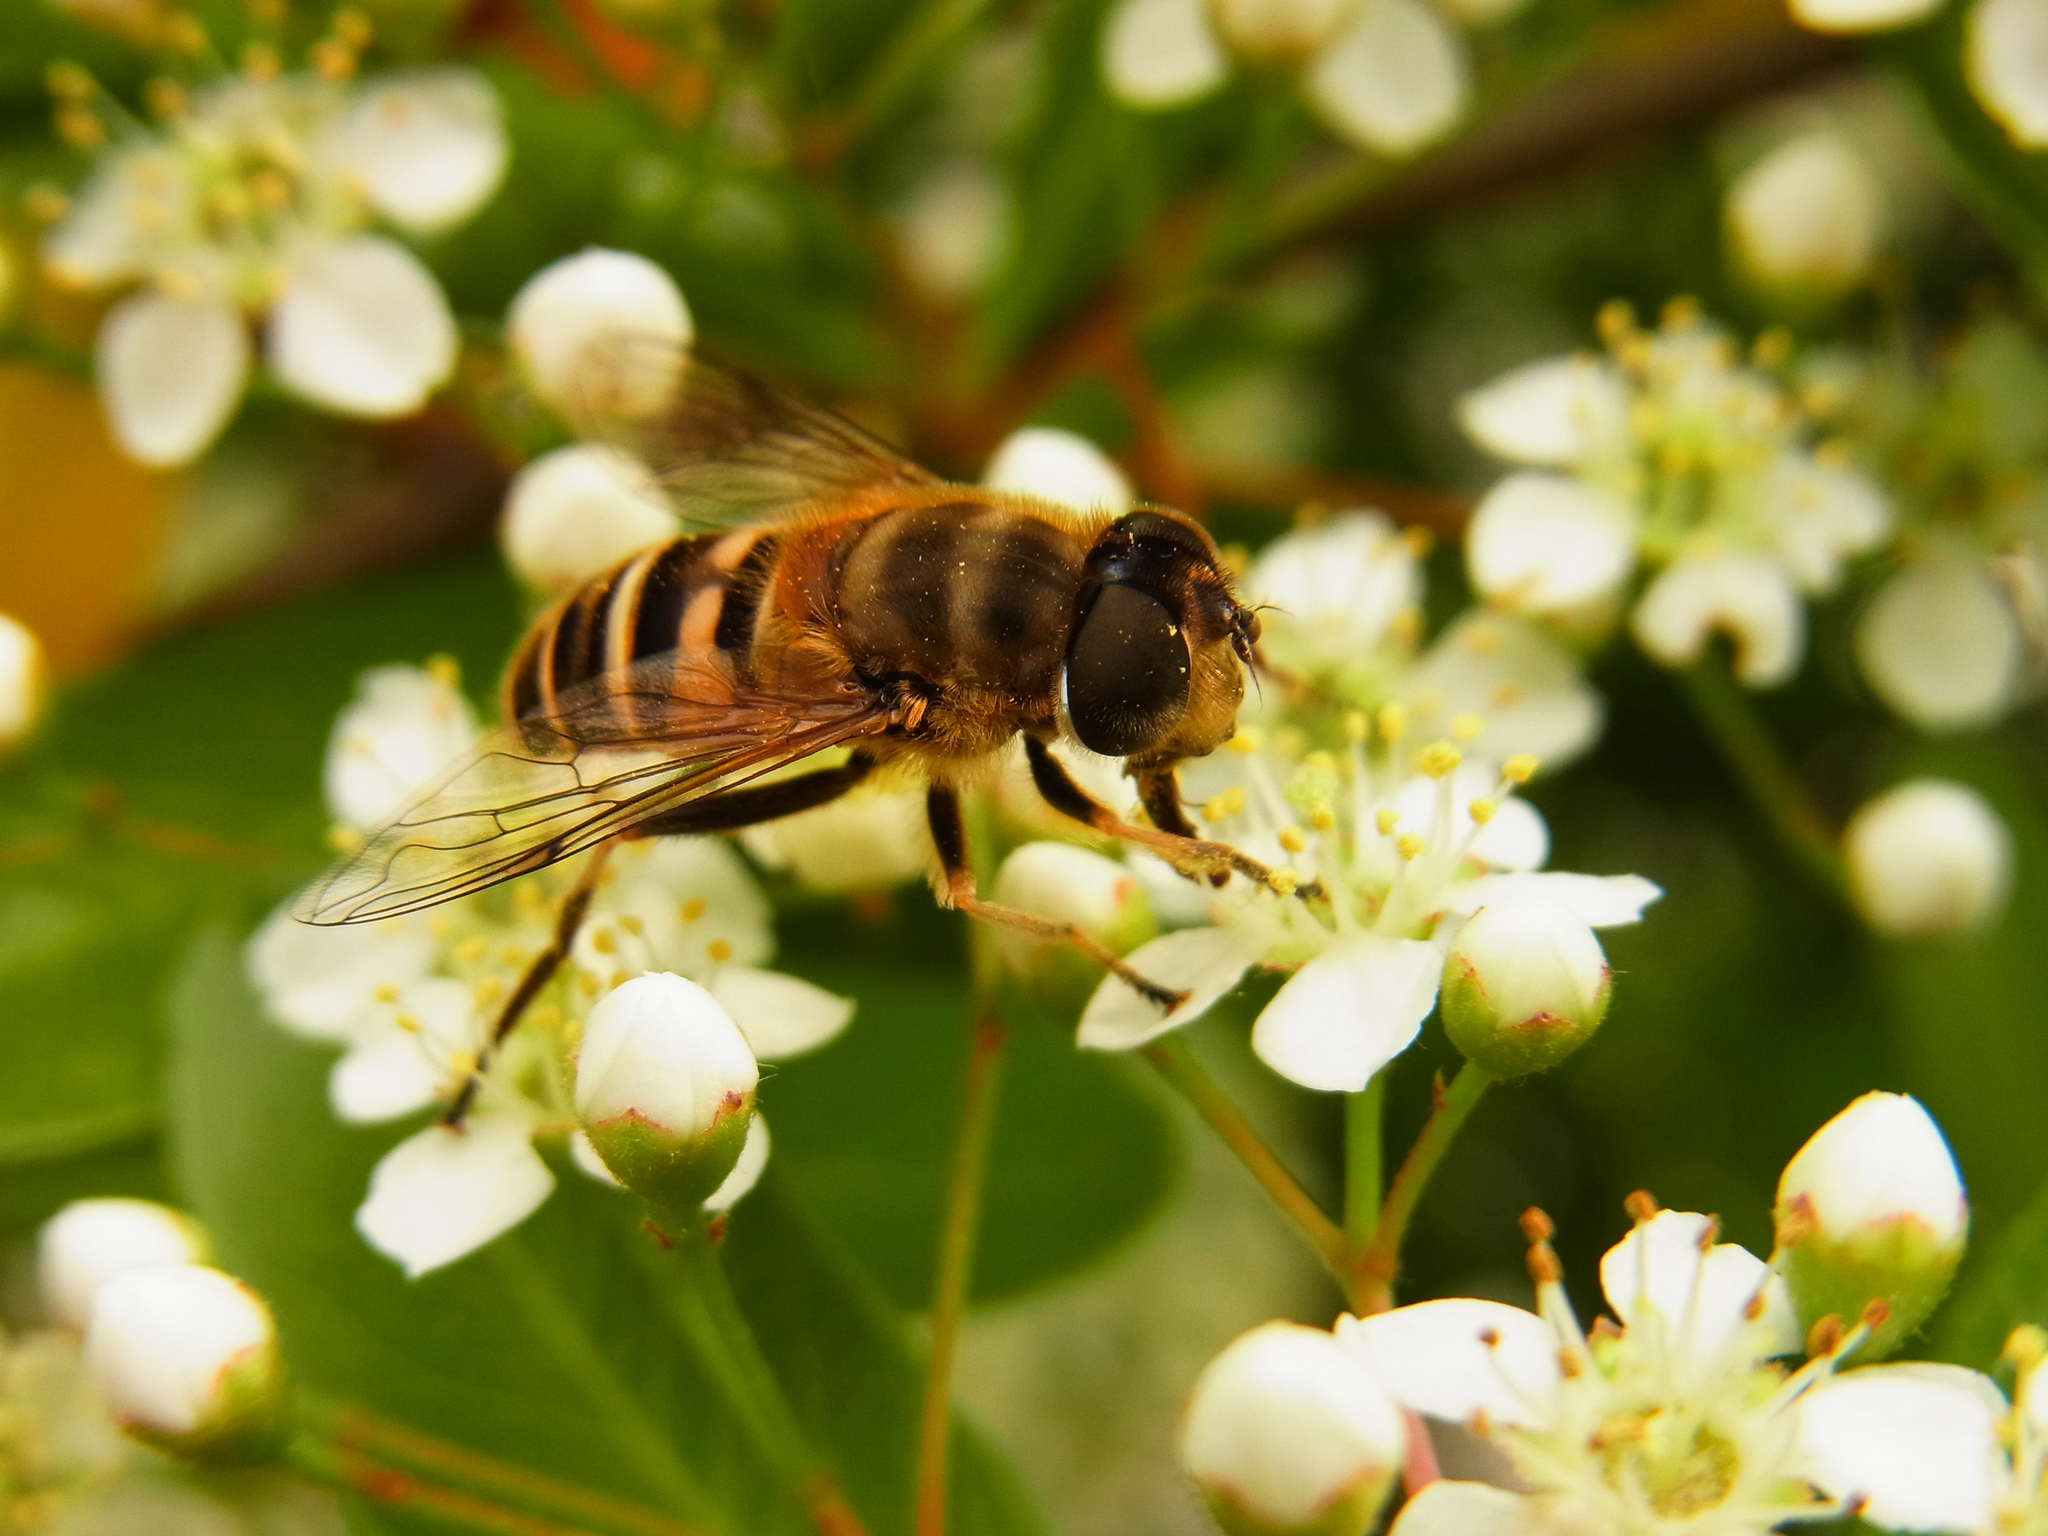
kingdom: Animalia
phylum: Arthropoda
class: Insecta
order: Diptera
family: Syrphidae
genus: Eristalis
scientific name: Eristalis cerealis
